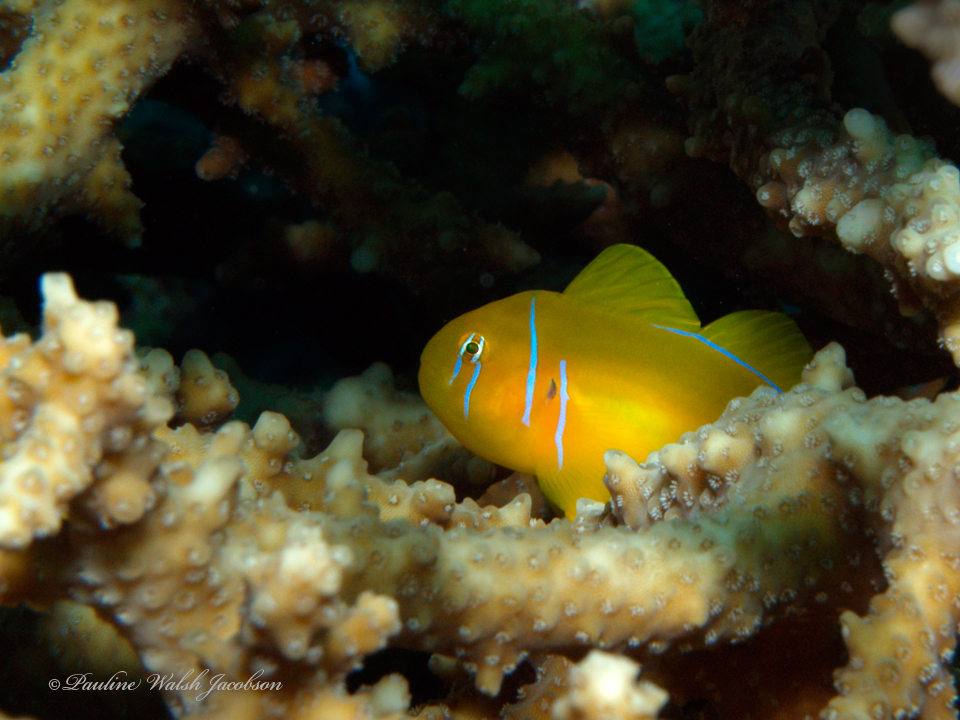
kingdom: Animalia
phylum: Chordata
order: Perciformes
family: Gobiidae
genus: Gobiodon
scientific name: Gobiodon citrinus
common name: Citron goby
